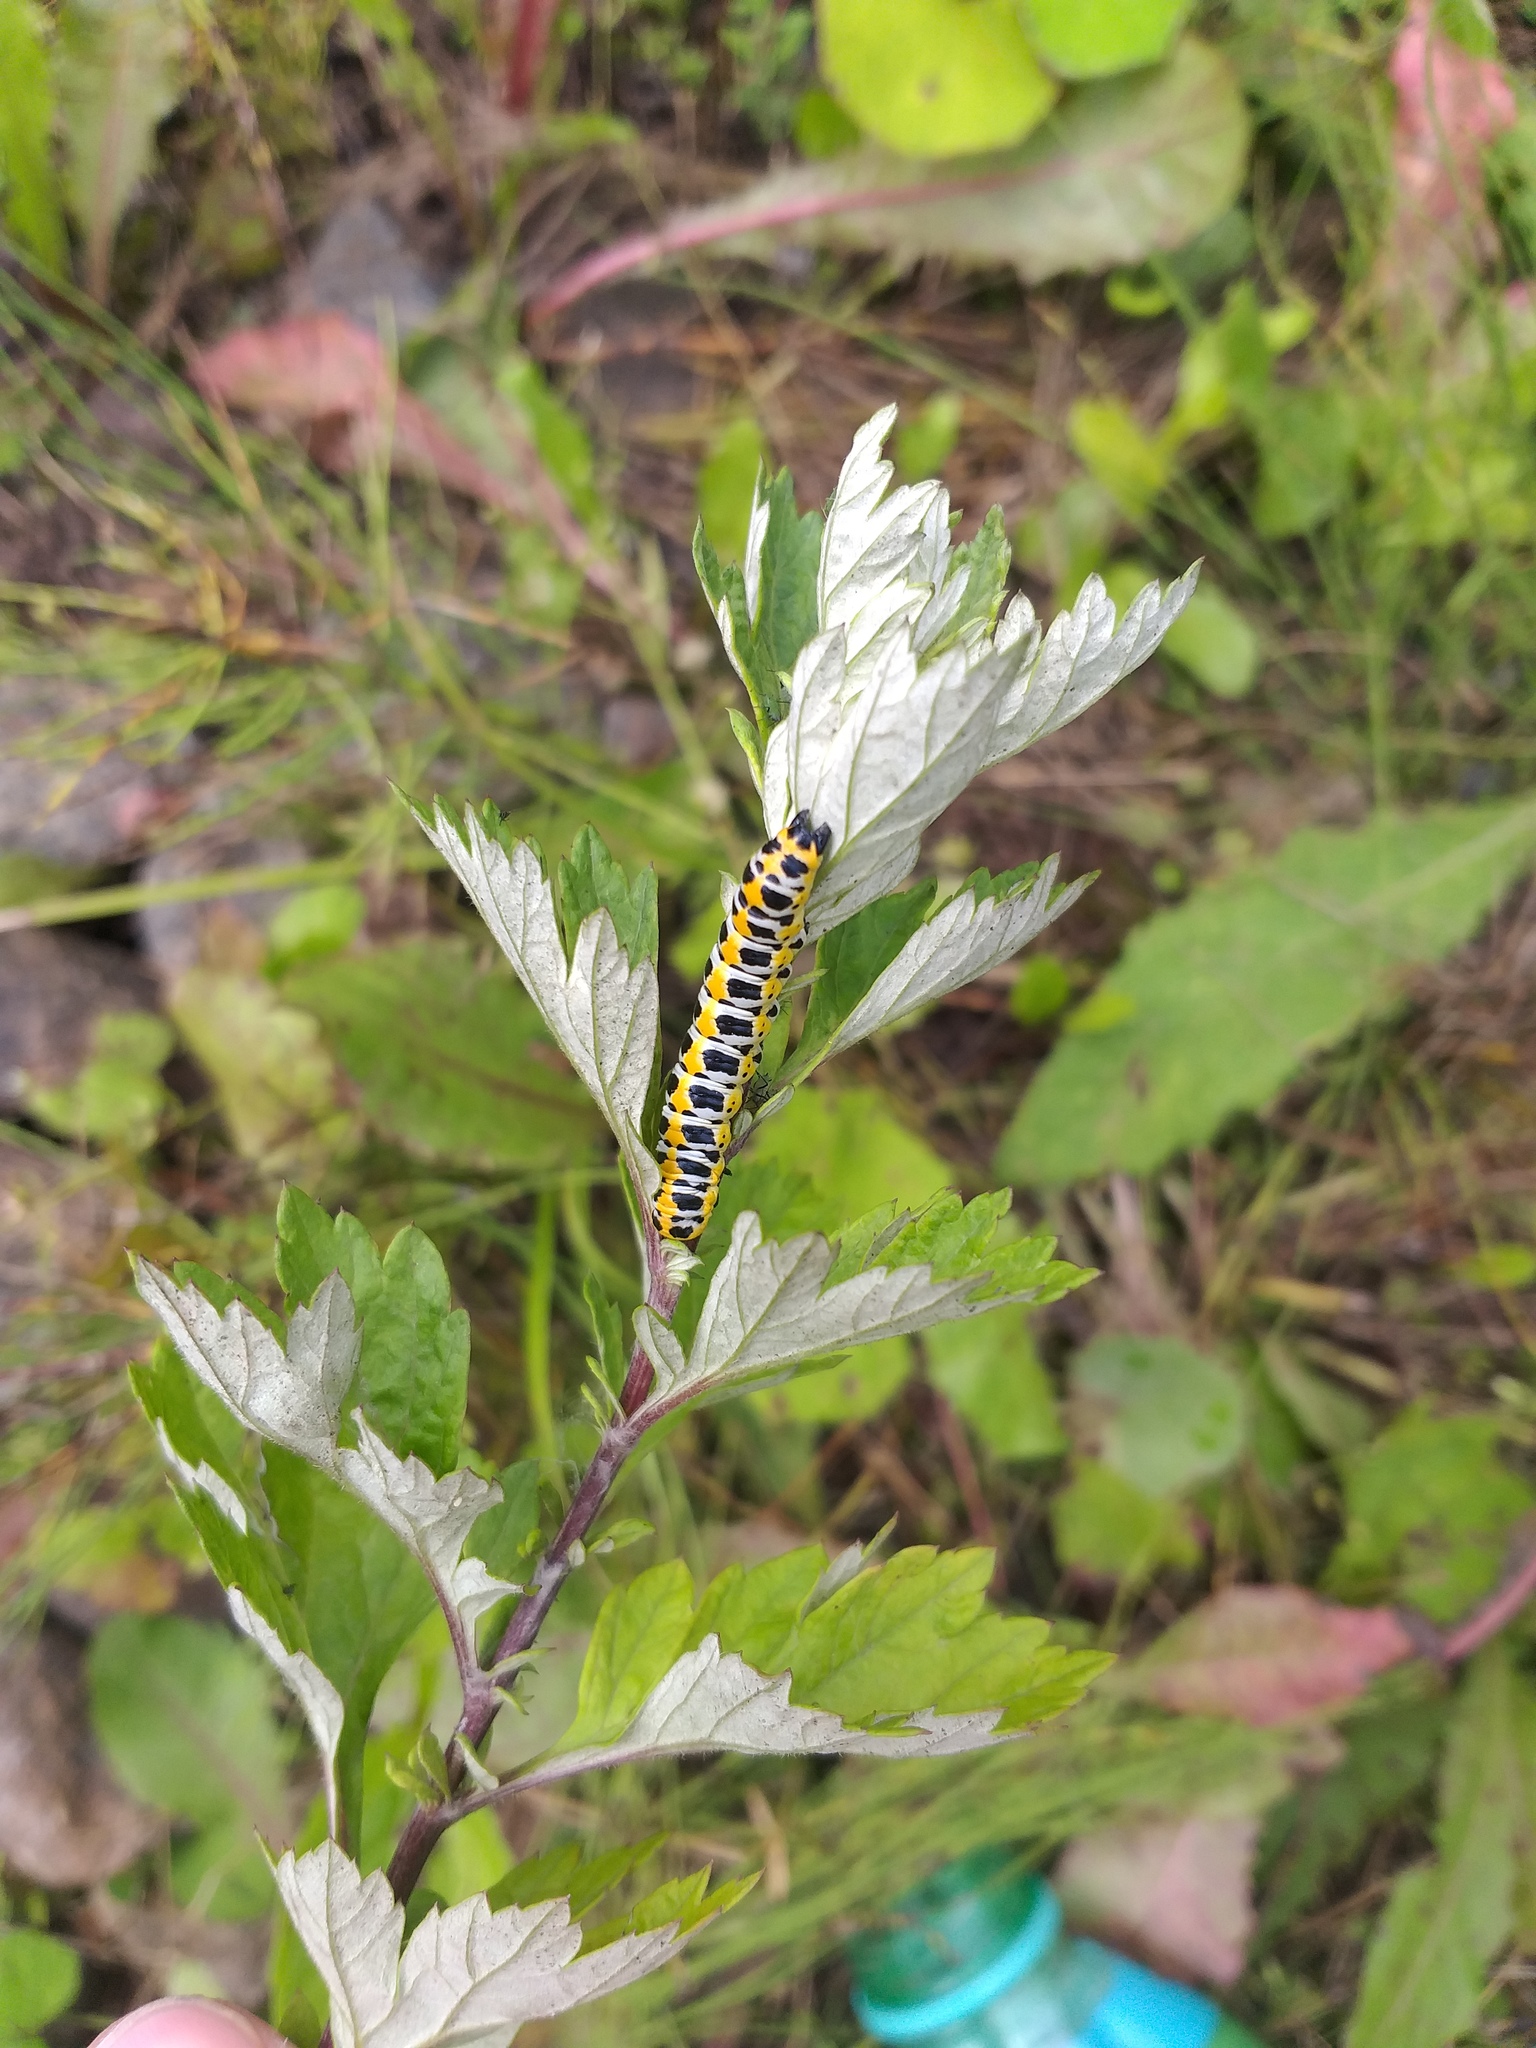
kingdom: Animalia
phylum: Arthropoda
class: Insecta
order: Lepidoptera
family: Noctuidae
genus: Cucullia
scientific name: Cucullia pustulata
